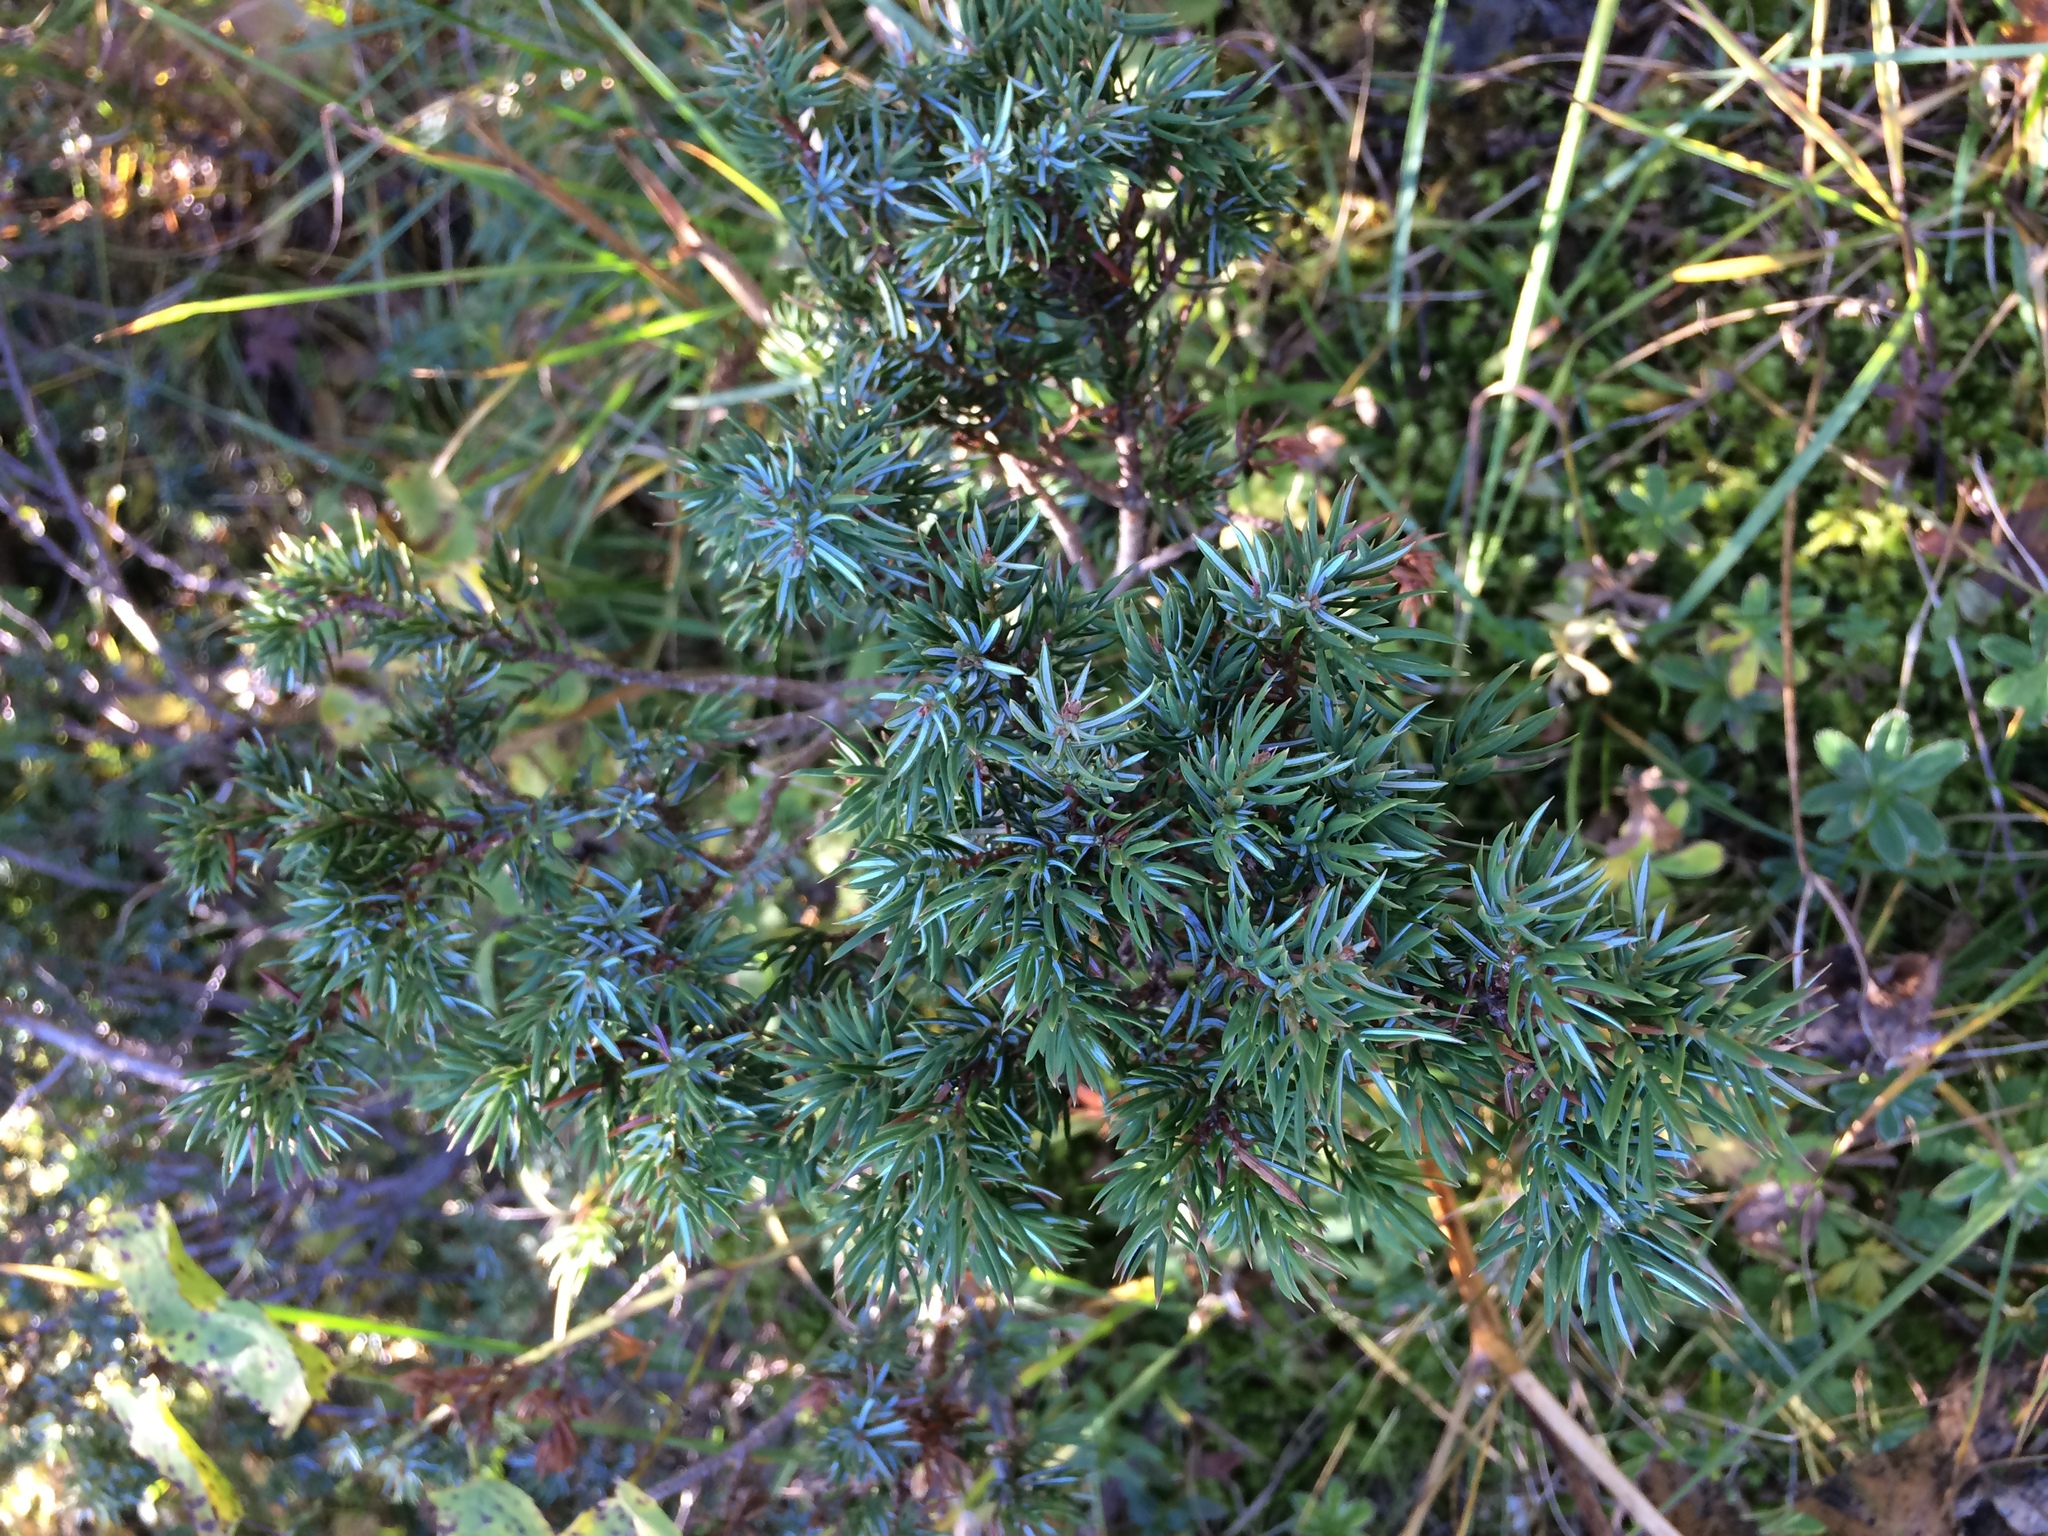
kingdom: Plantae
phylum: Tracheophyta
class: Pinopsida
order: Pinales
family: Cupressaceae
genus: Juniperus
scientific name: Juniperus communis
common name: Common juniper
